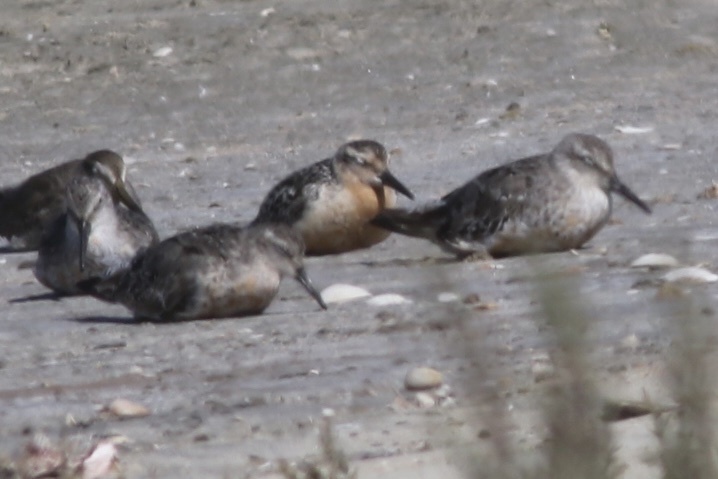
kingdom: Animalia
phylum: Chordata
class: Aves
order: Charadriiformes
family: Scolopacidae
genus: Calidris
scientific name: Calidris canutus
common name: Red knot
